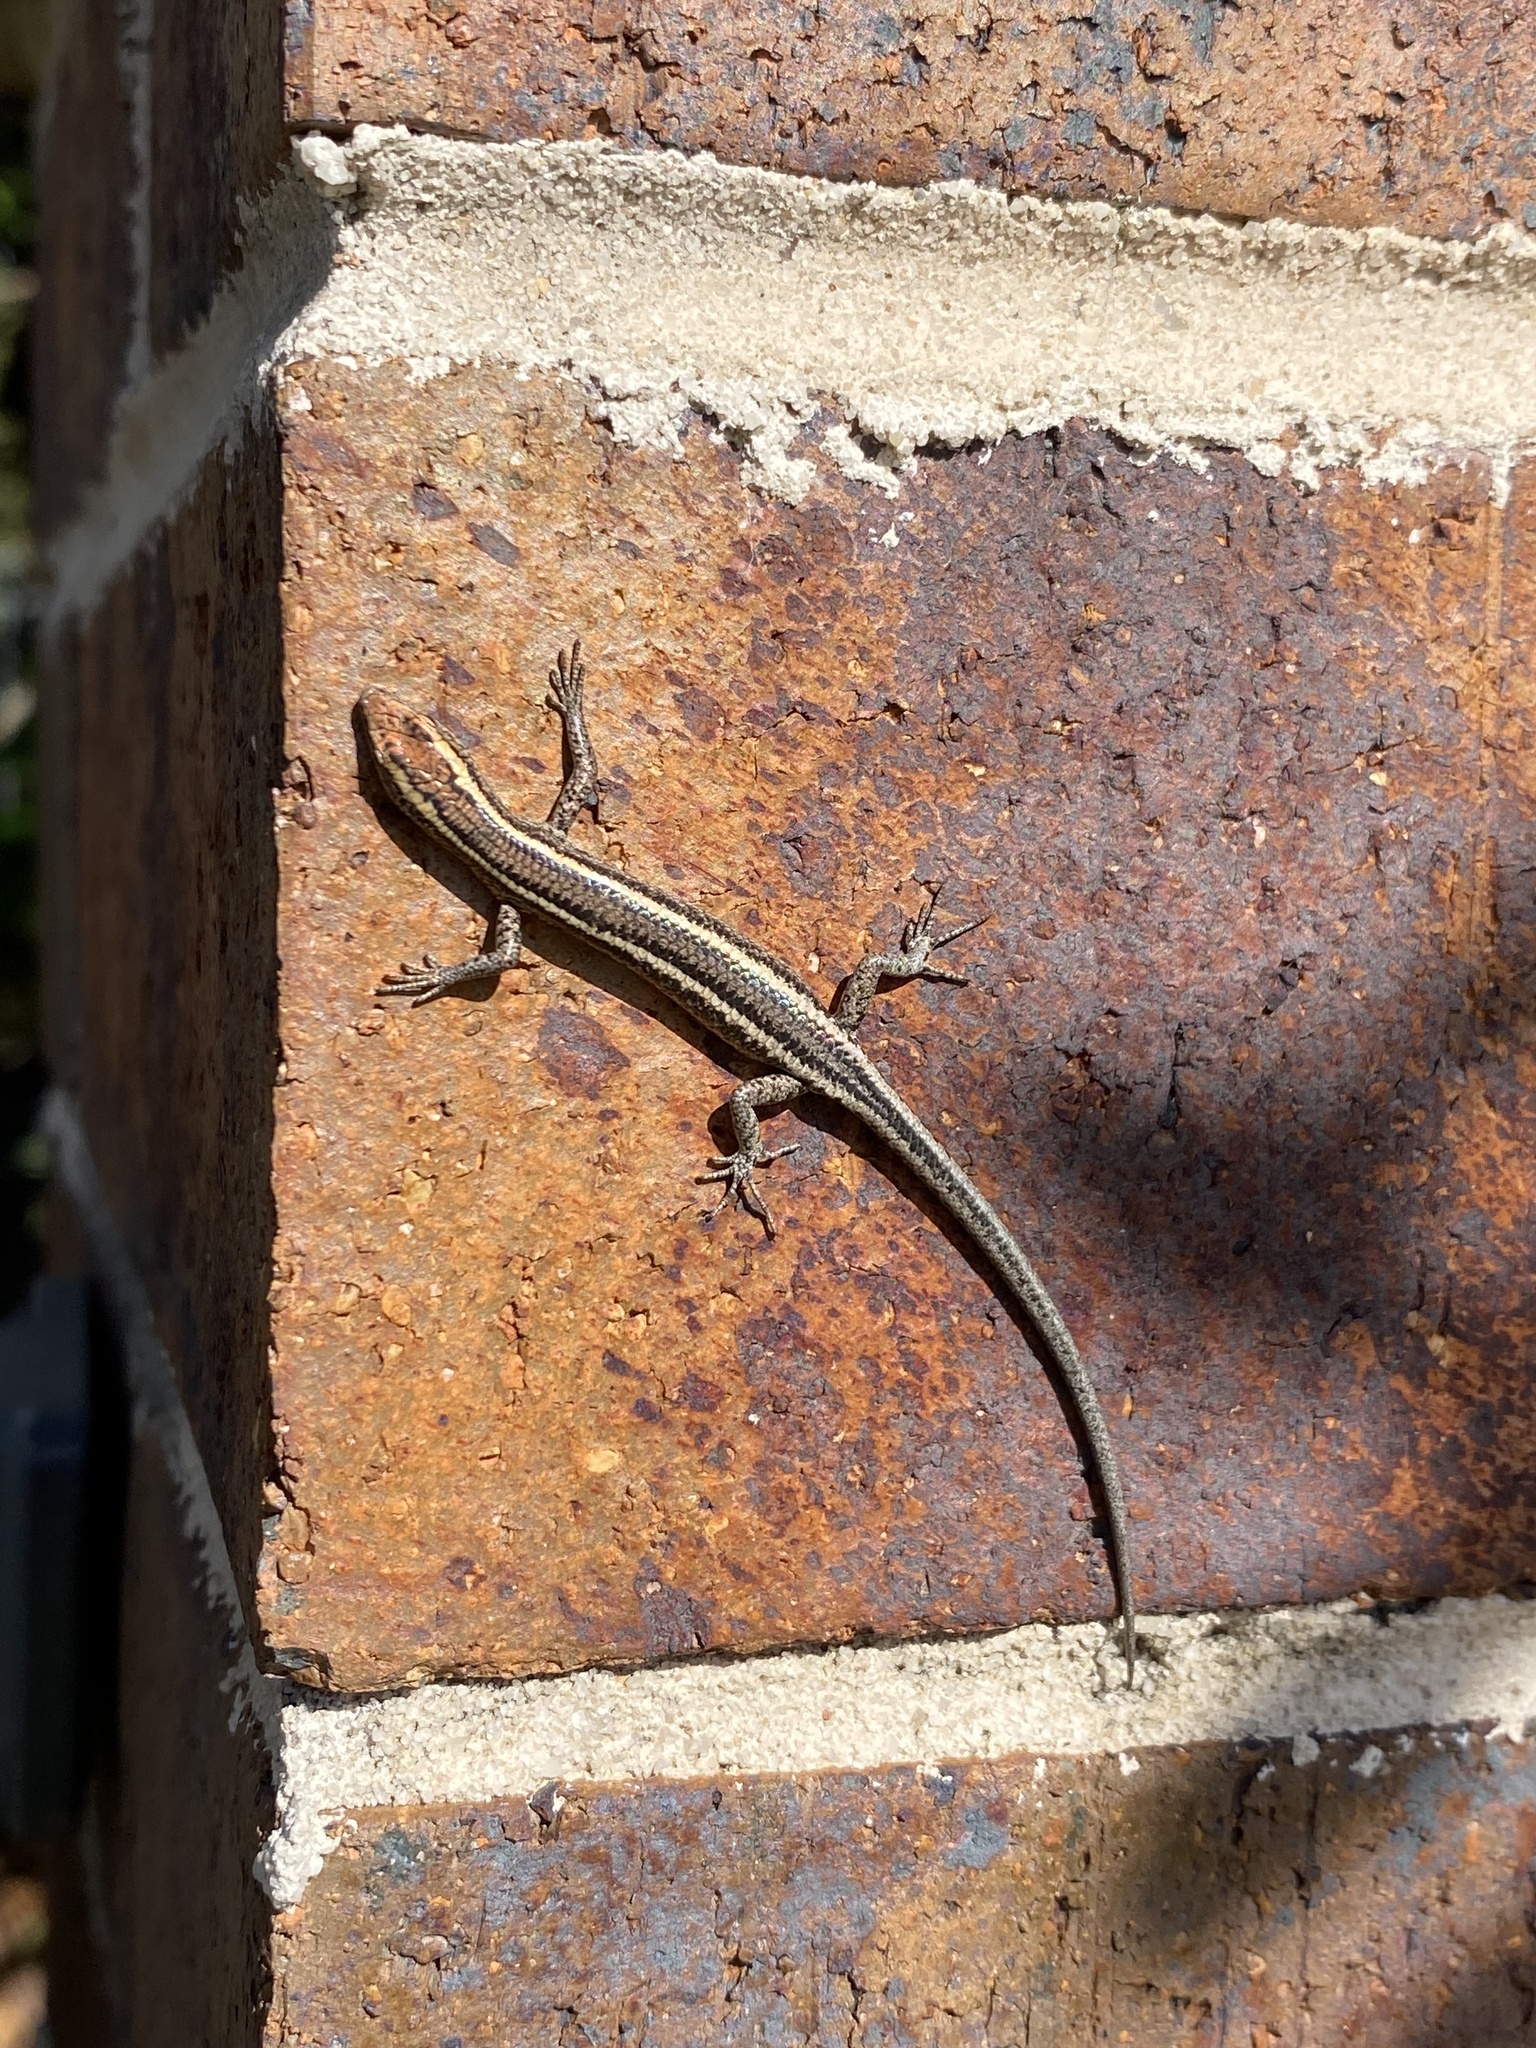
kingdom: Animalia
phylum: Chordata
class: Squamata
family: Scincidae
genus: Cryptoblepharus
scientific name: Cryptoblepharus pulcher
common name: Elegant snake-eyed skink
